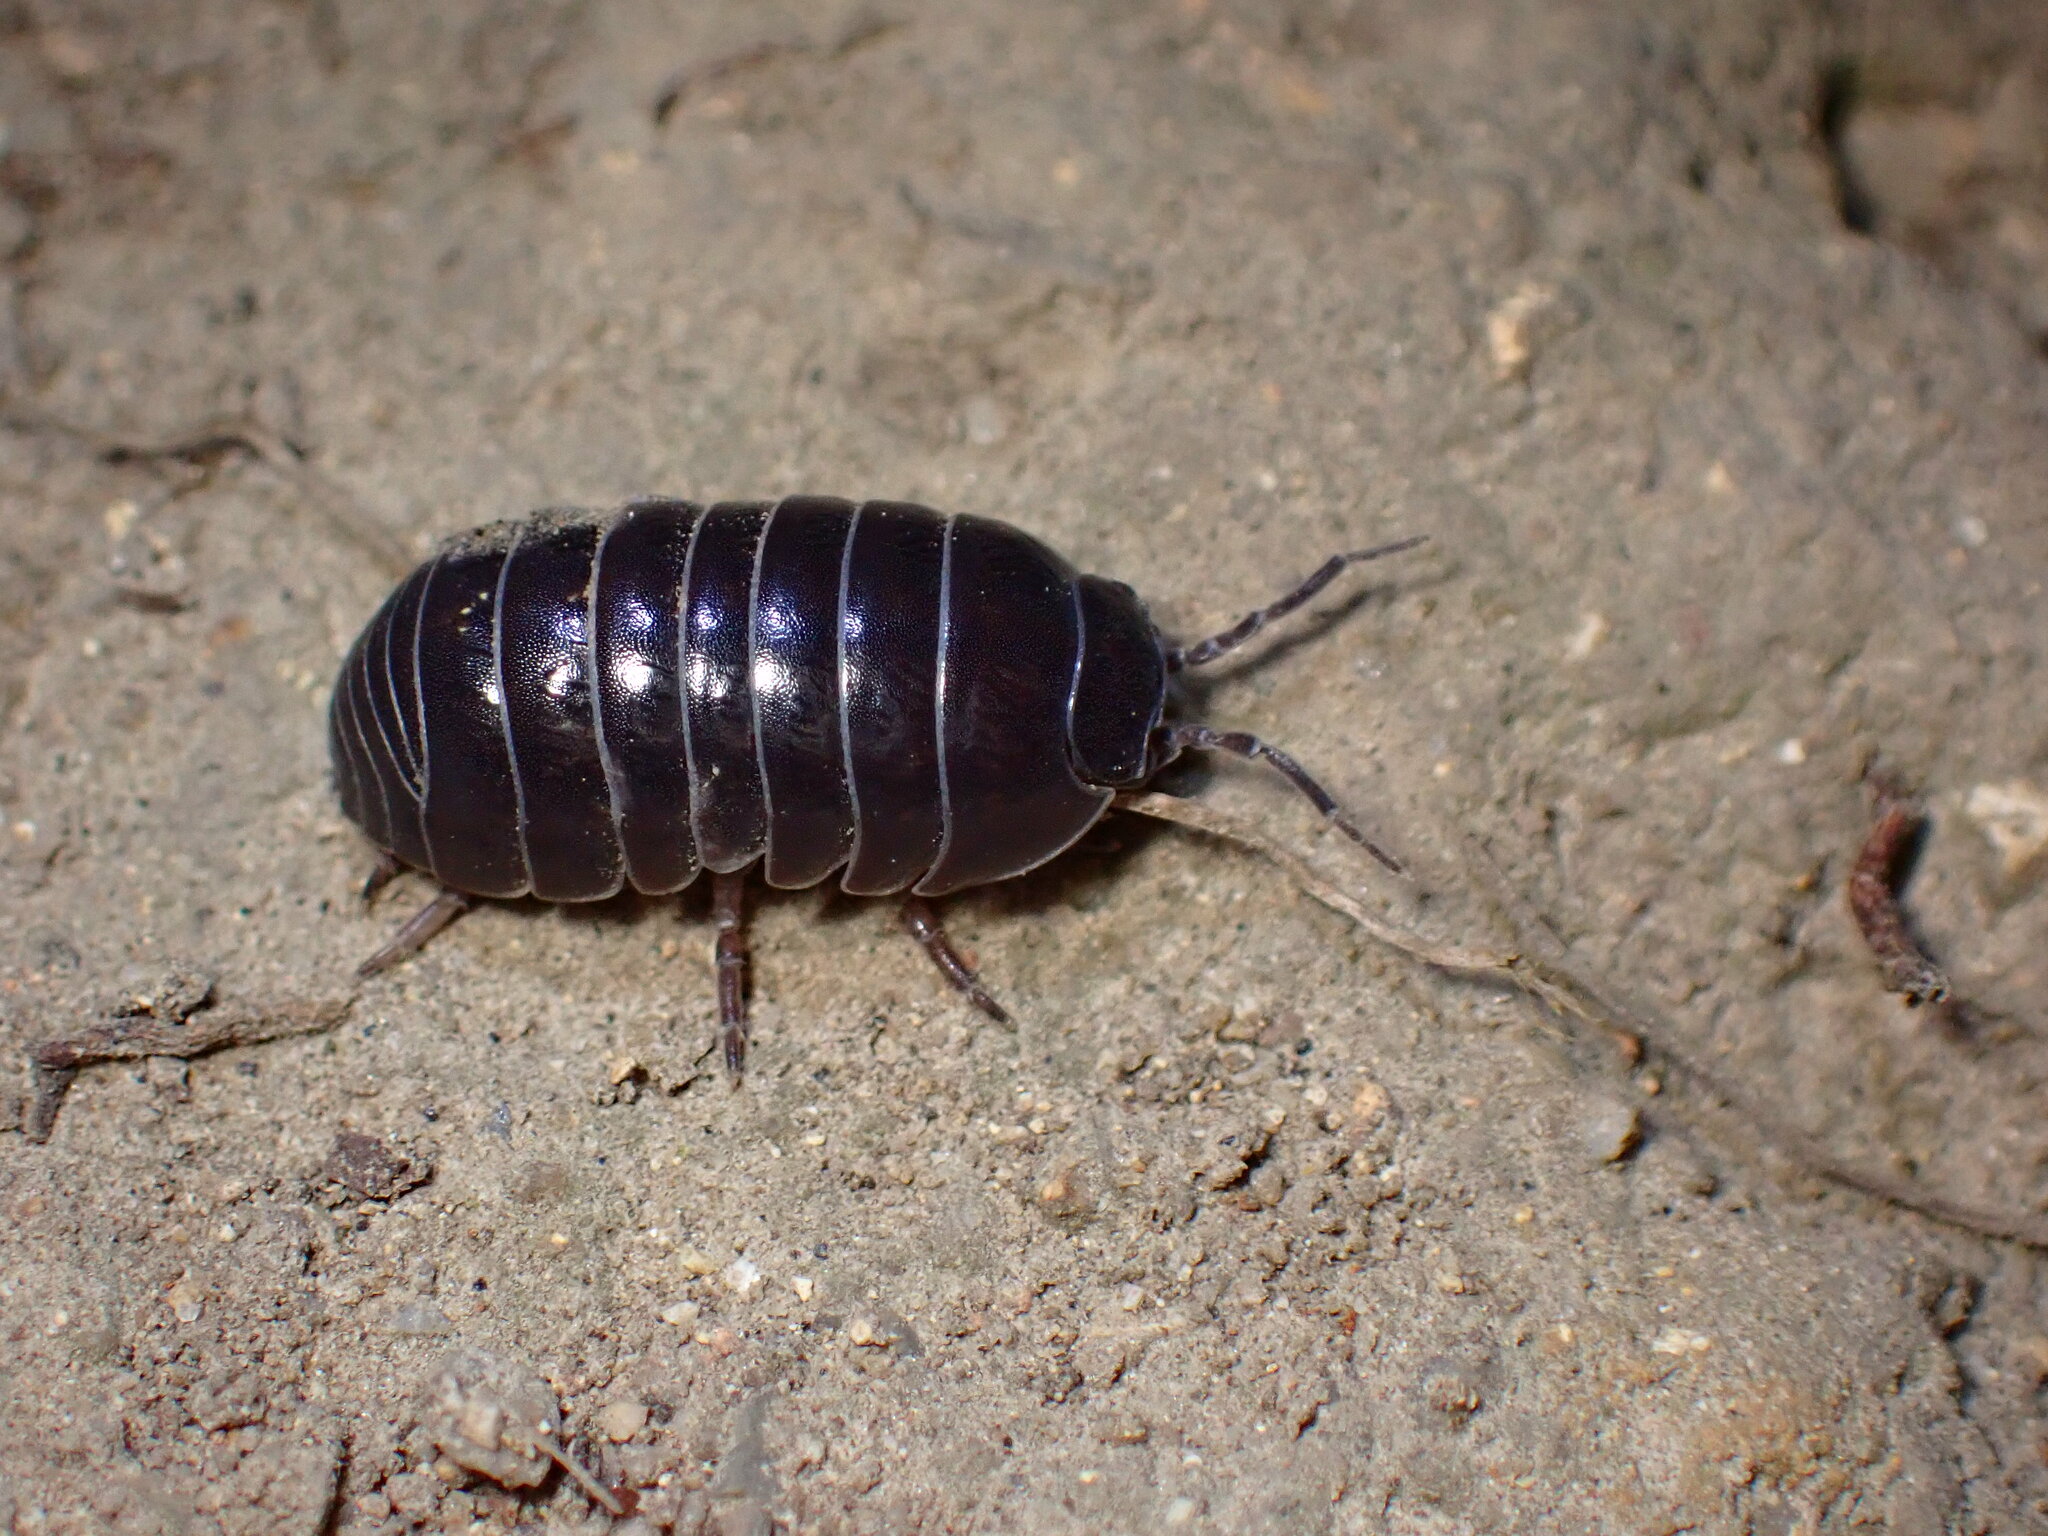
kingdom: Animalia
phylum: Arthropoda
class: Malacostraca
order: Isopoda
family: Armadillidiidae
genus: Armadillidium
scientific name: Armadillidium vulgare
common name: Common pill woodlouse
